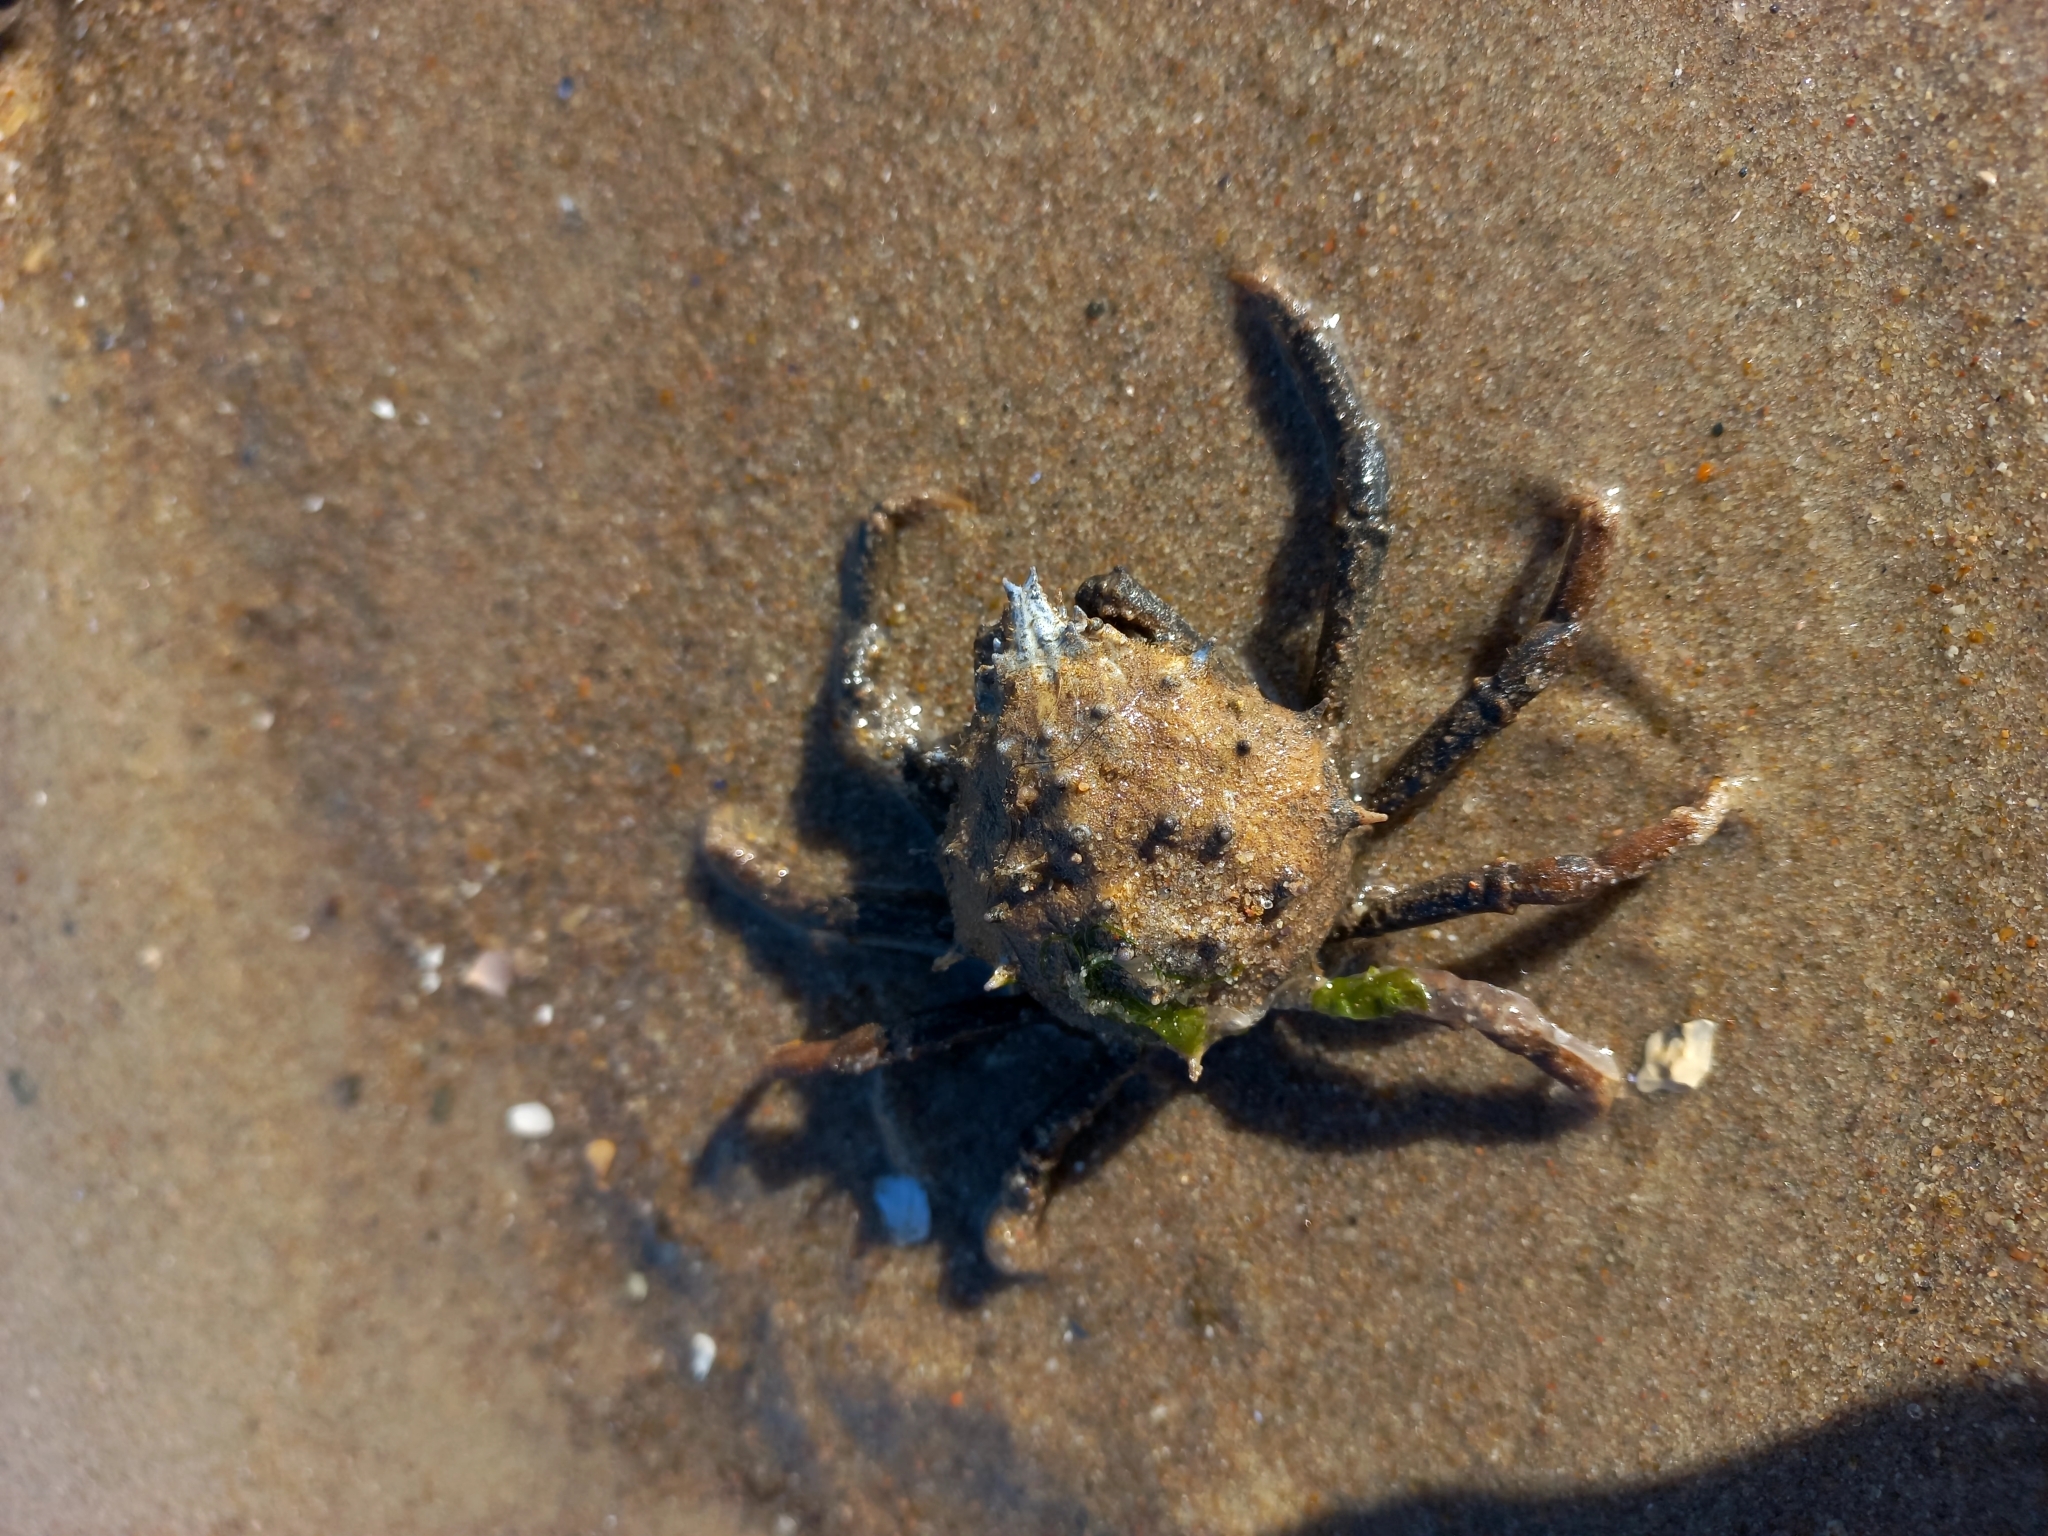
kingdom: Animalia
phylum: Arthropoda
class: Malacostraca
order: Decapoda
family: Epialtidae
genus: Libinia
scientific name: Libinia spinosa
